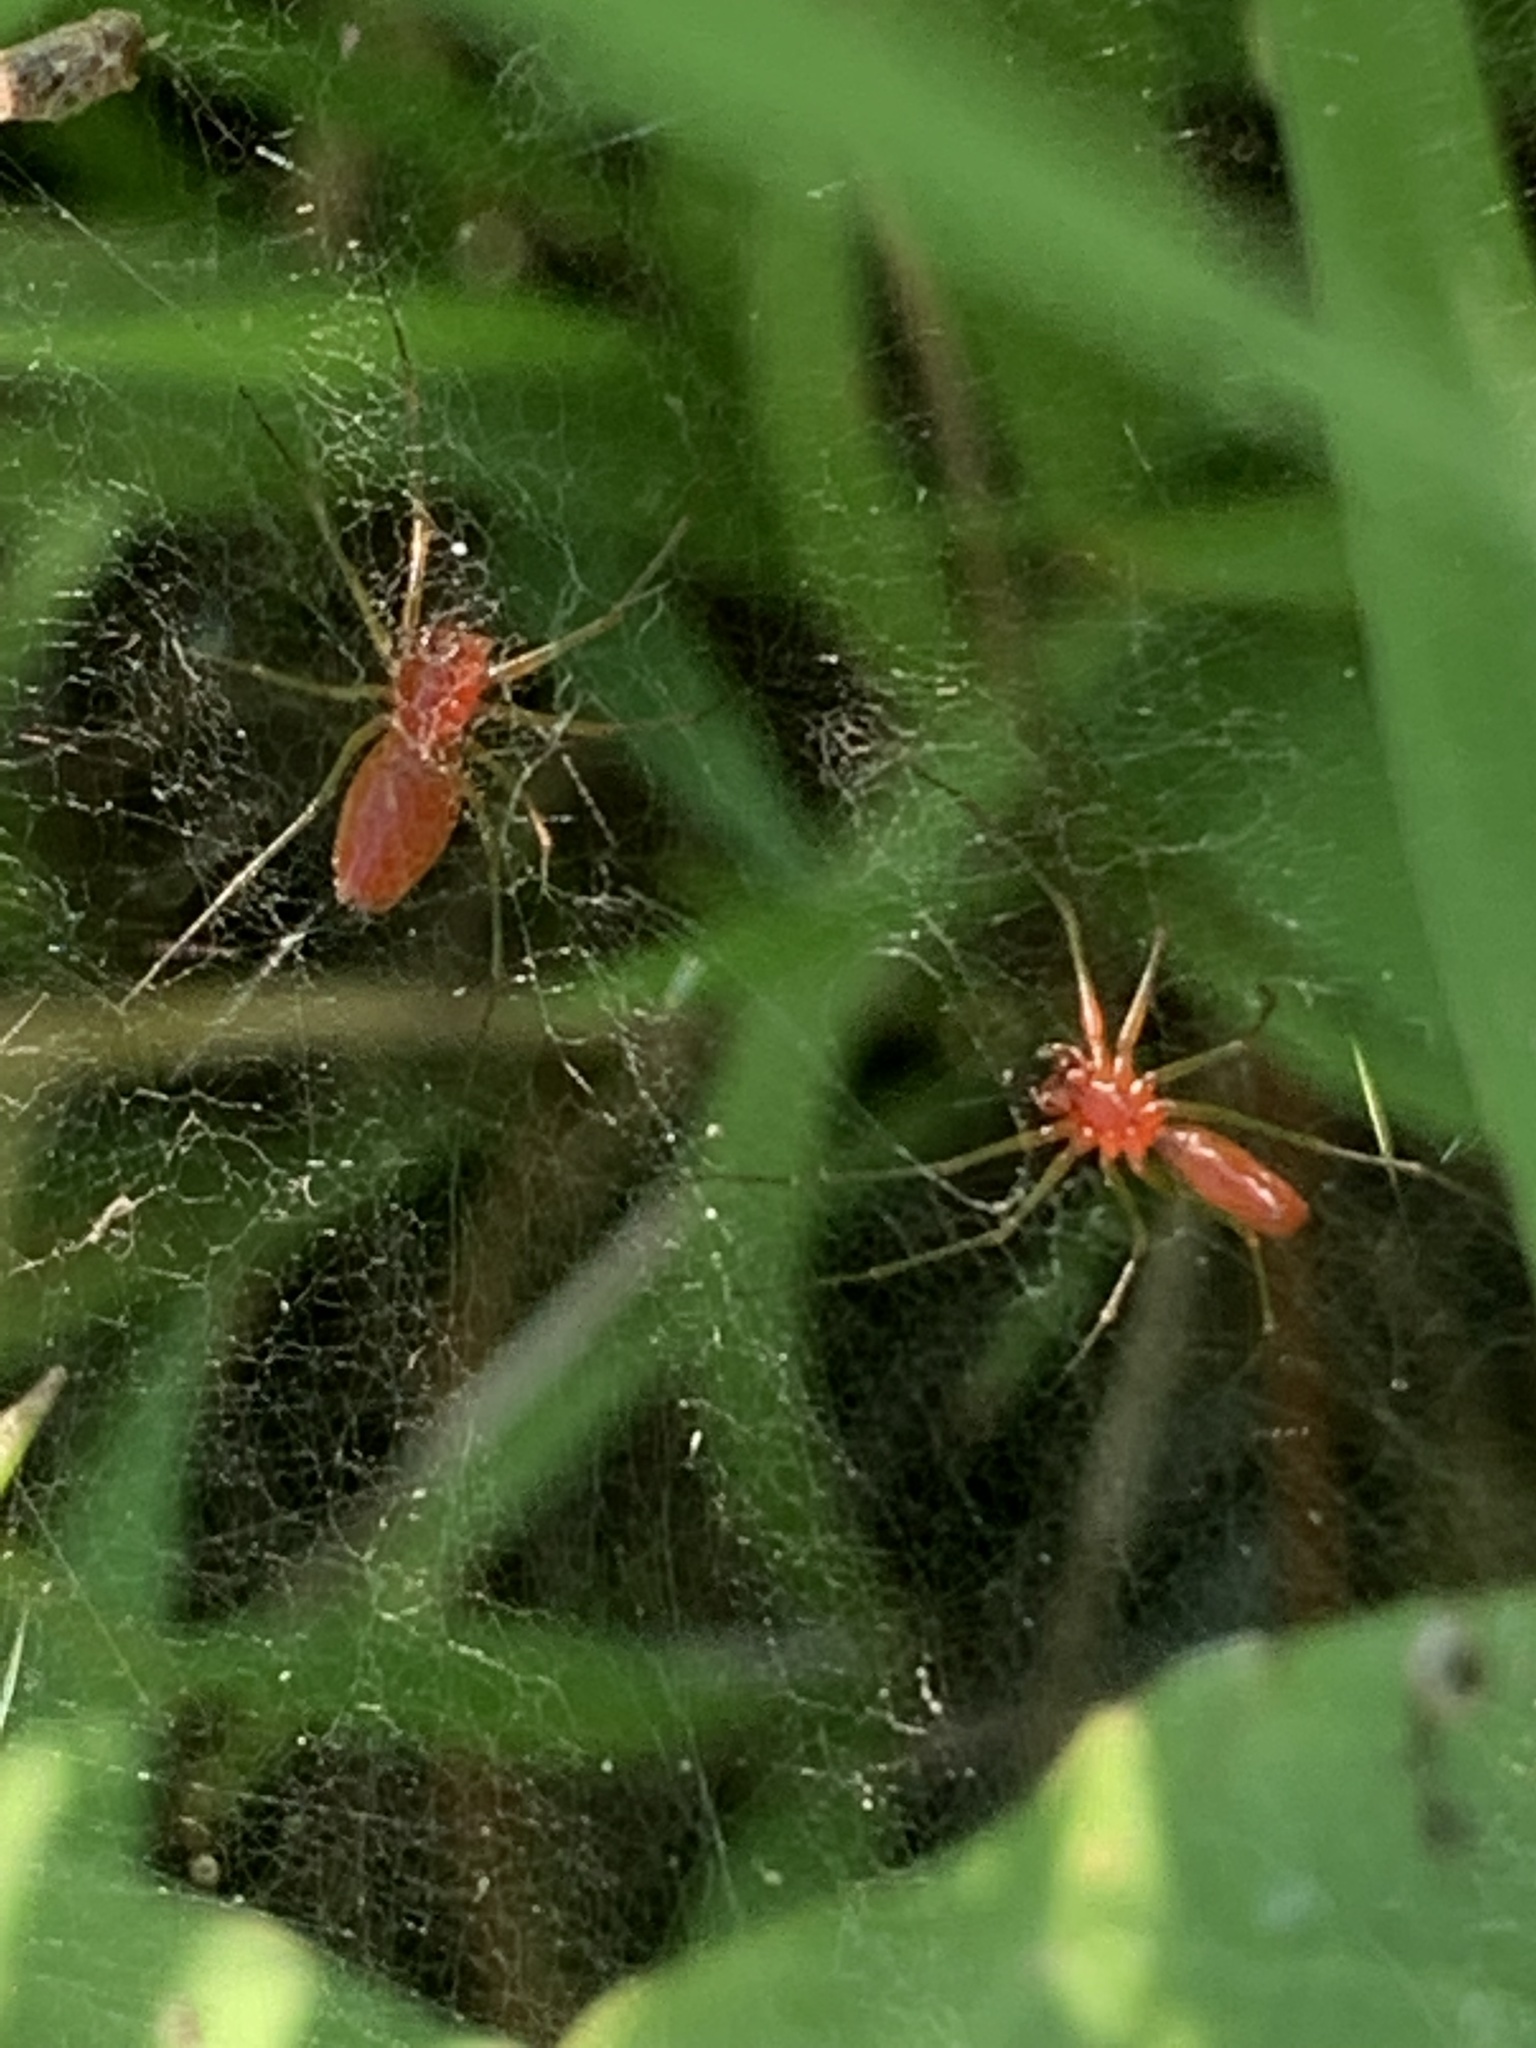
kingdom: Animalia
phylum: Arthropoda
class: Arachnida
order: Araneae
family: Linyphiidae
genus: Florinda
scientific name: Florinda coccinea
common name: Black-tailed red sheetweaver
